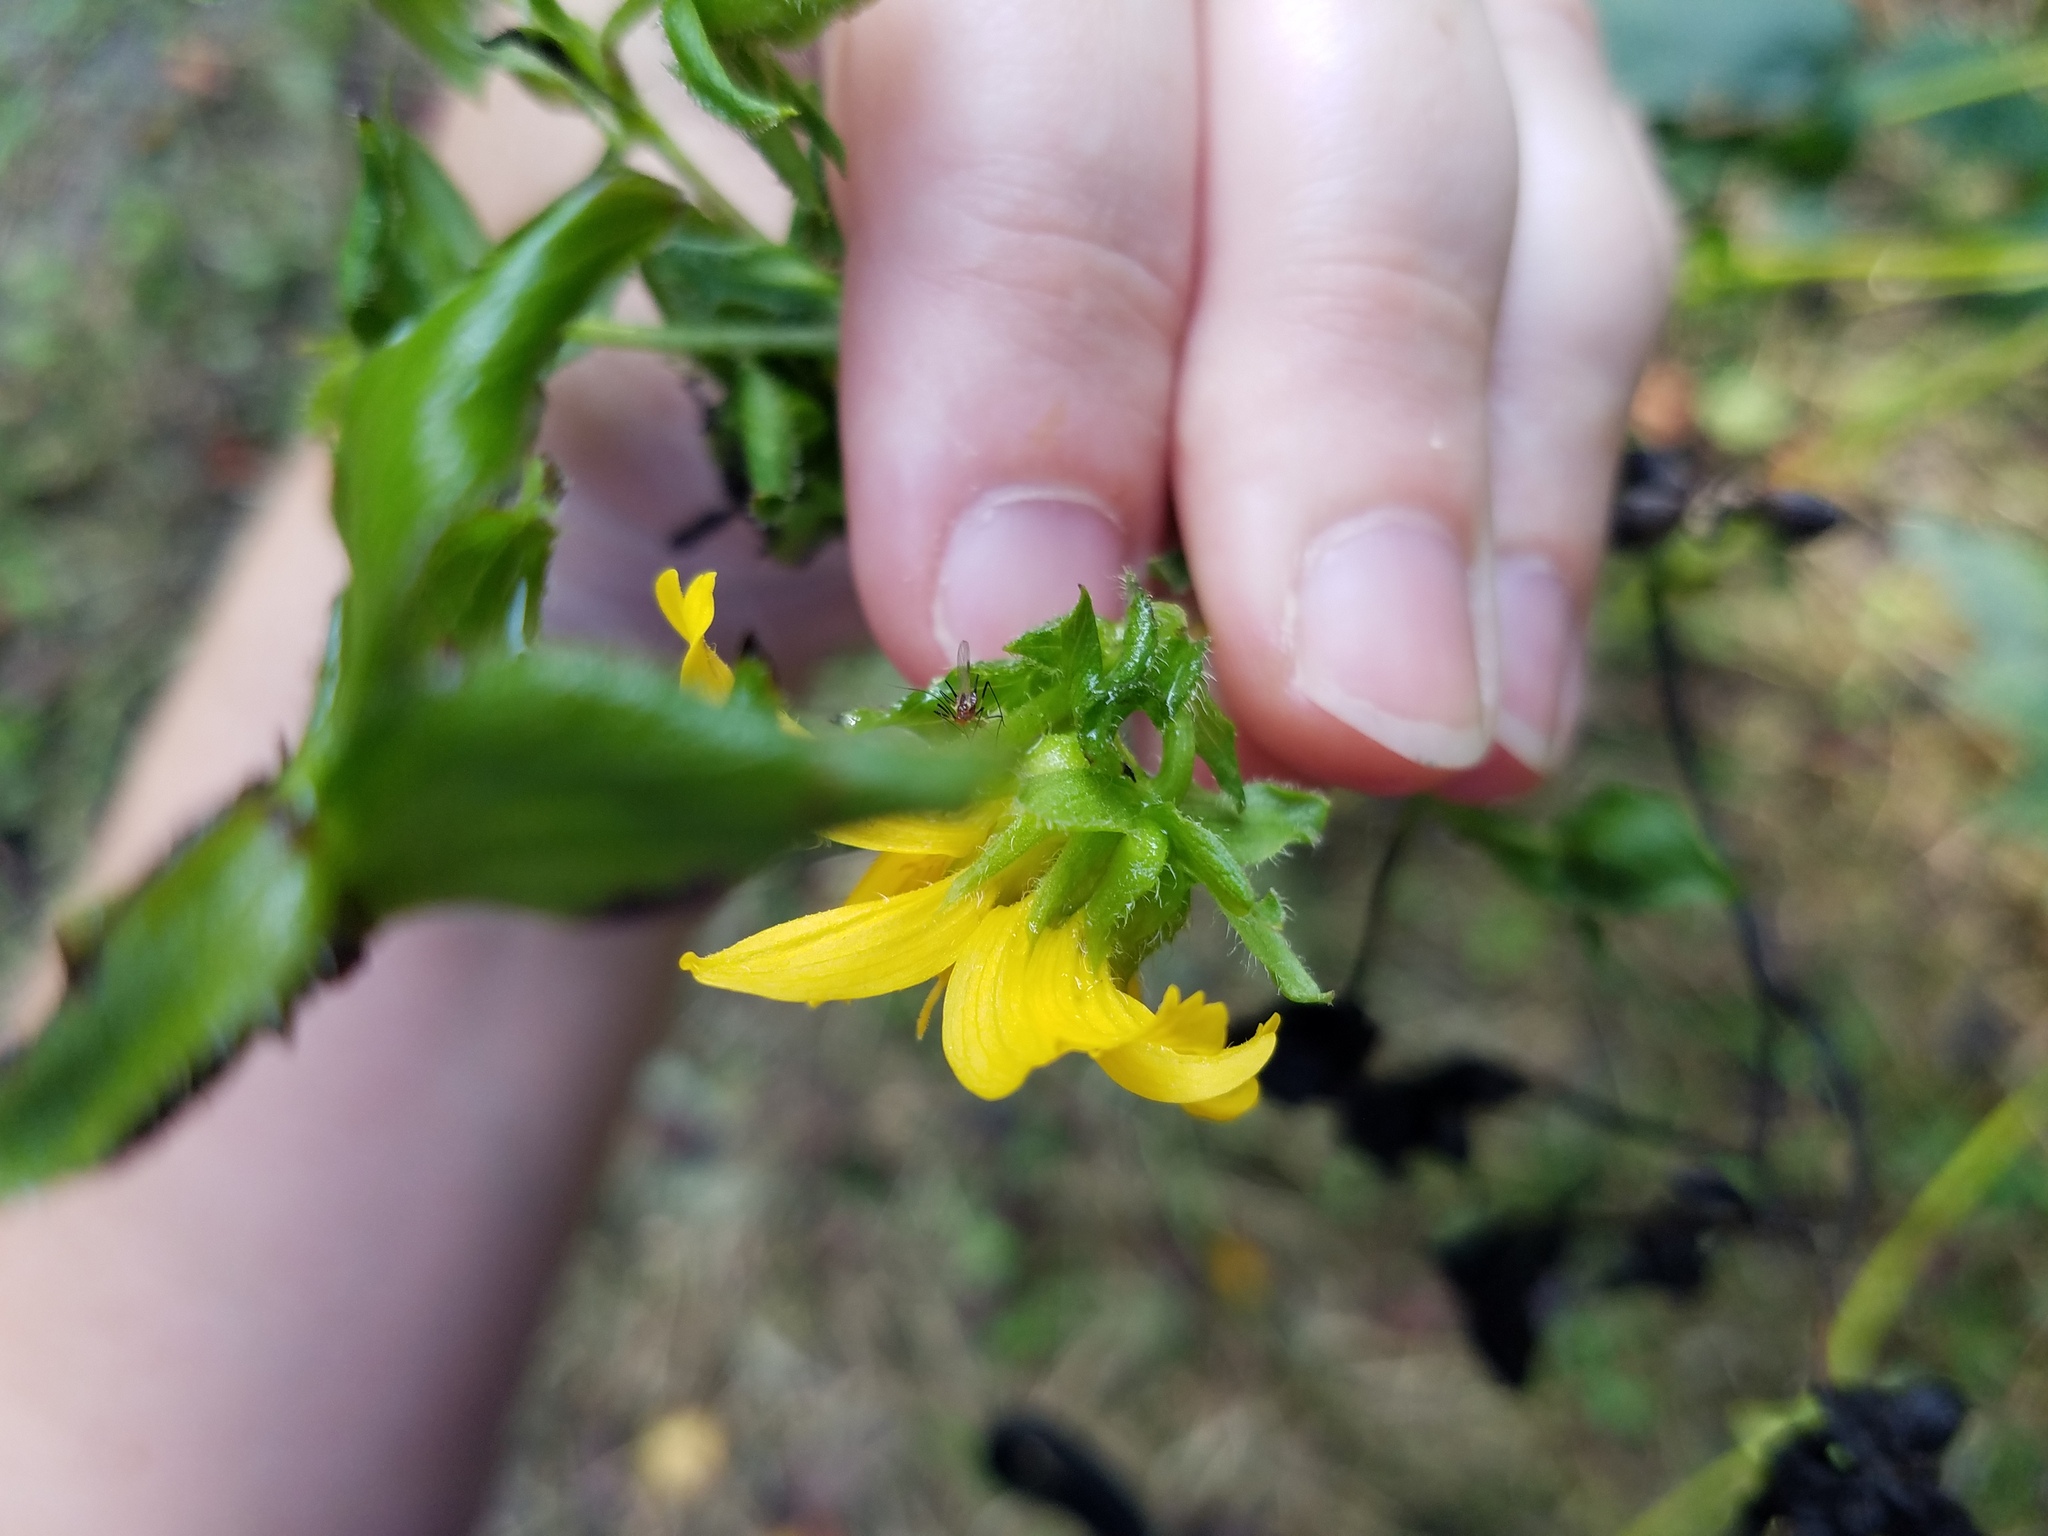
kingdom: Plantae
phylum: Tracheophyta
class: Magnoliopsida
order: Asterales
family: Asteraceae
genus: Smallanthus
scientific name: Smallanthus uvedalia
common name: Bear's-foot
